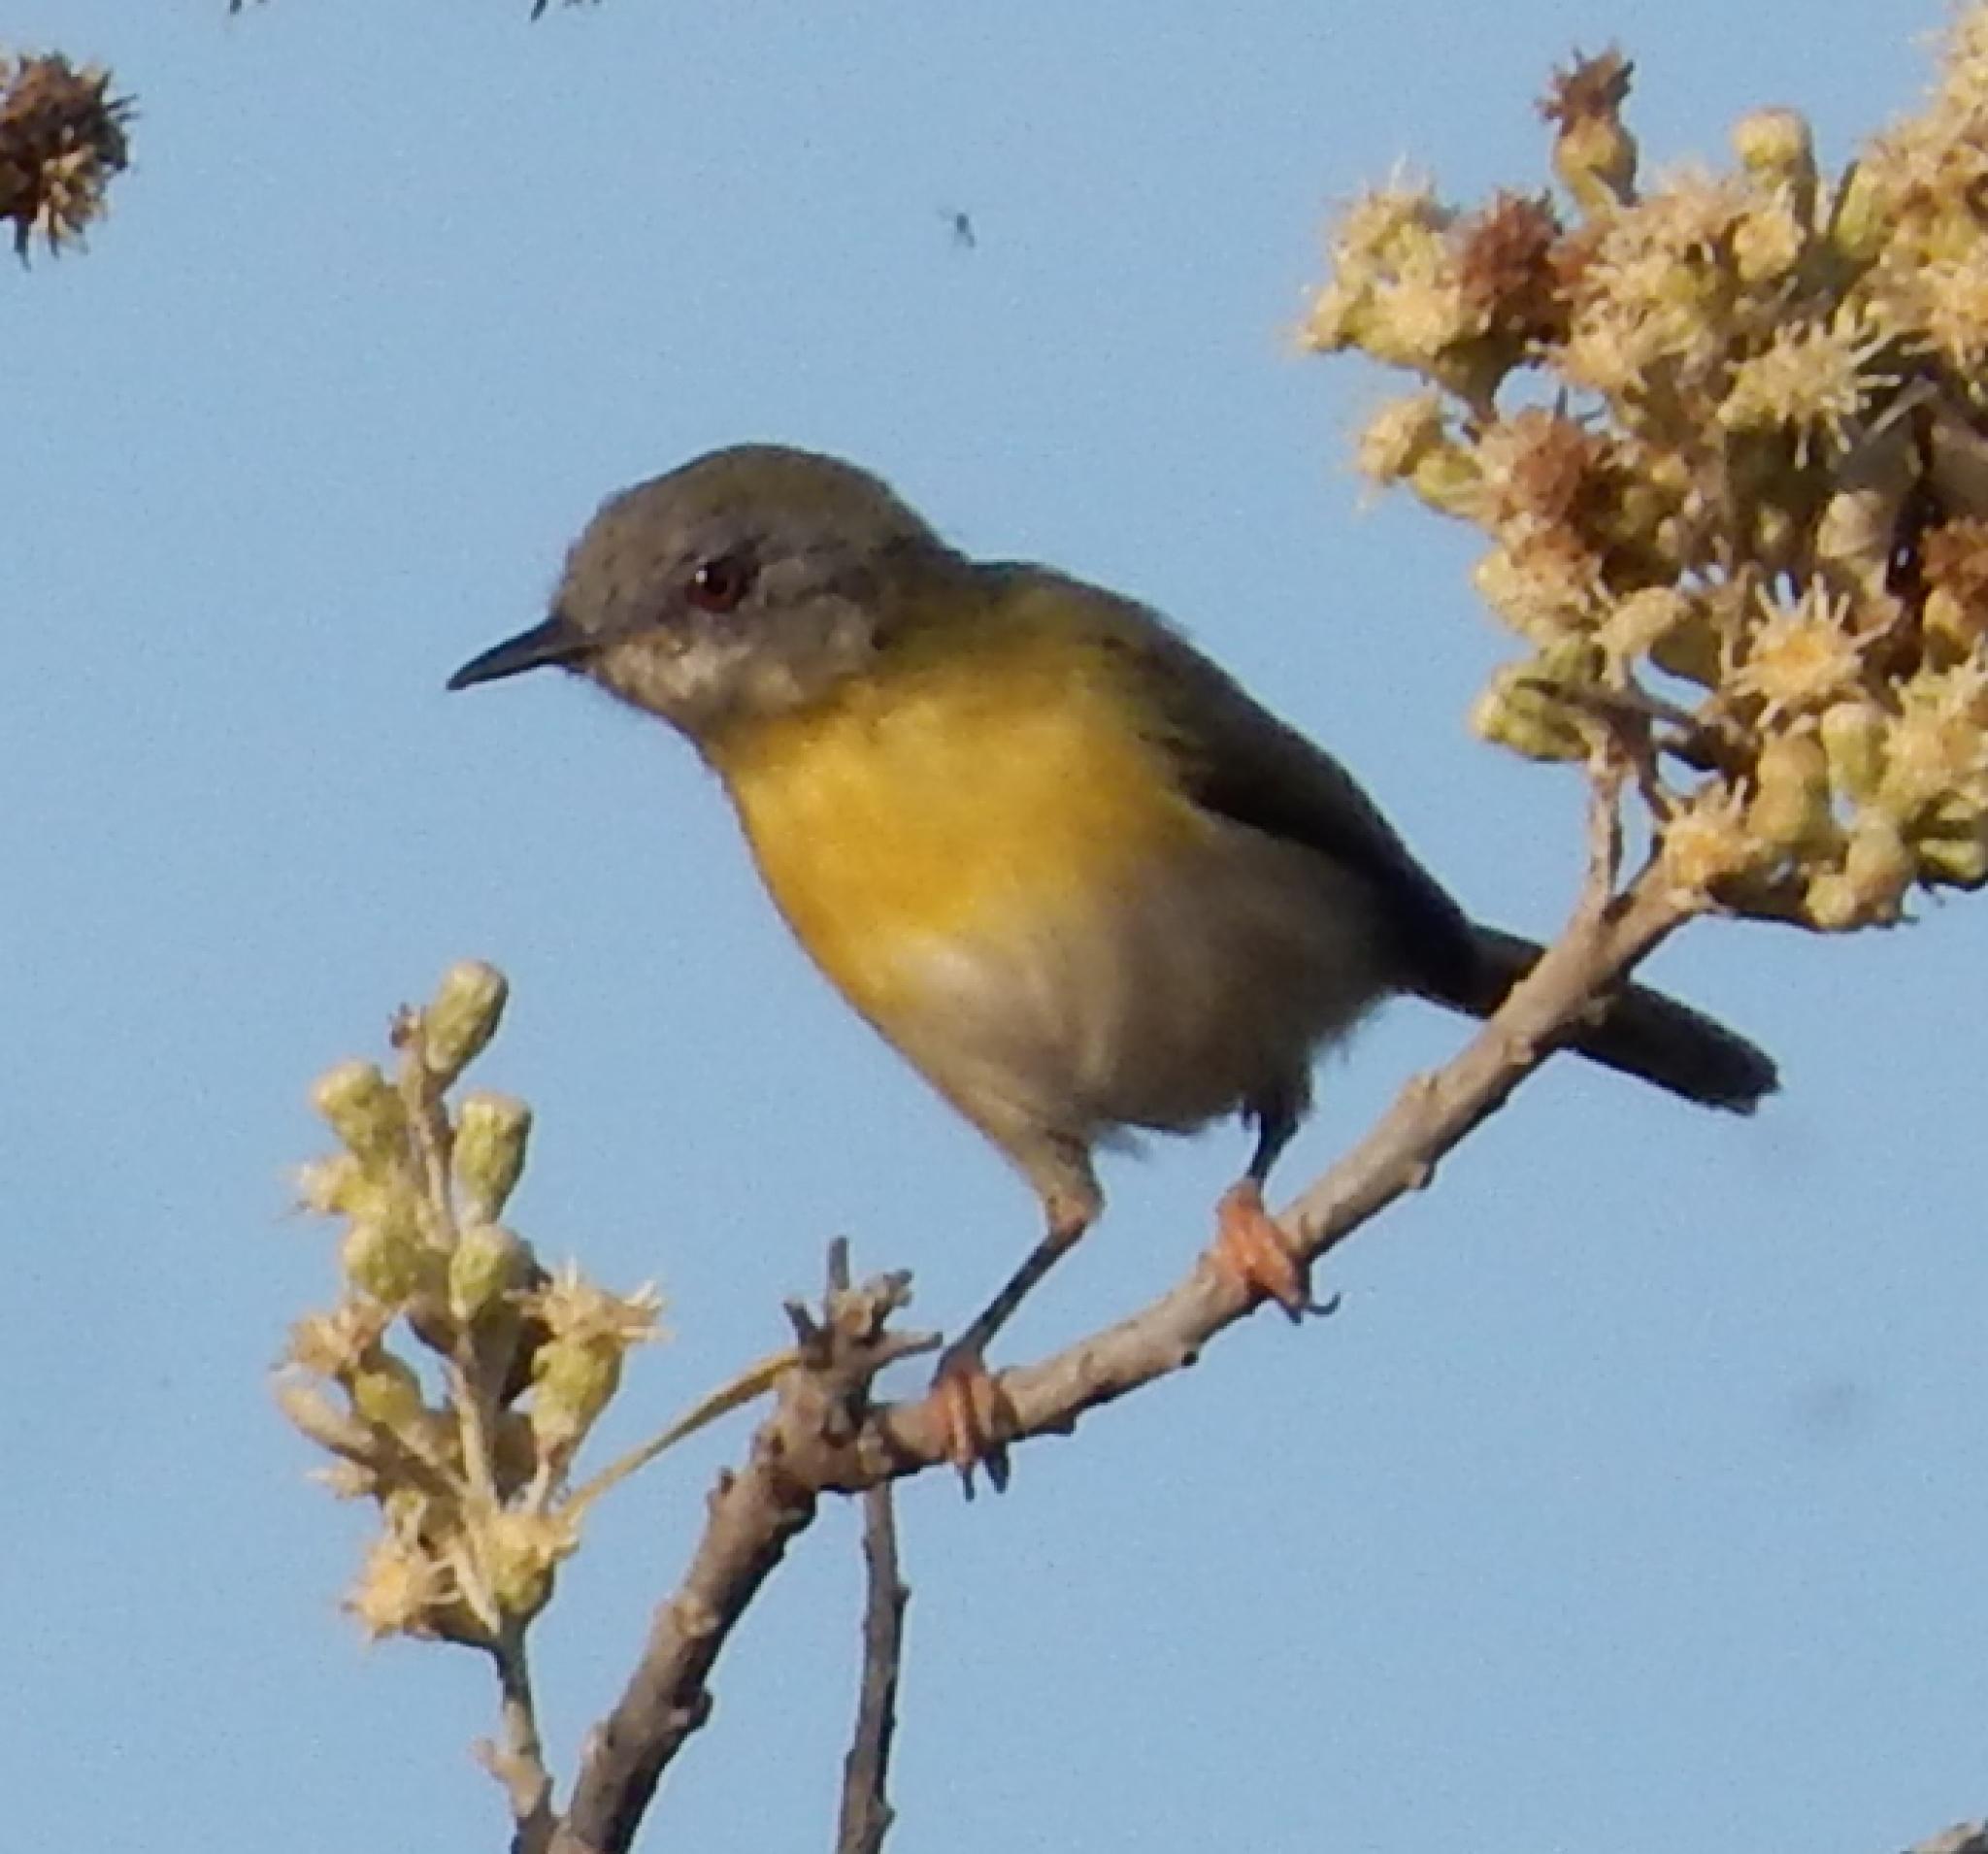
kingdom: Animalia
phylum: Chordata
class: Aves
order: Passeriformes
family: Cisticolidae
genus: Apalis
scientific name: Apalis flavida
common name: Yellow-breasted apalis
